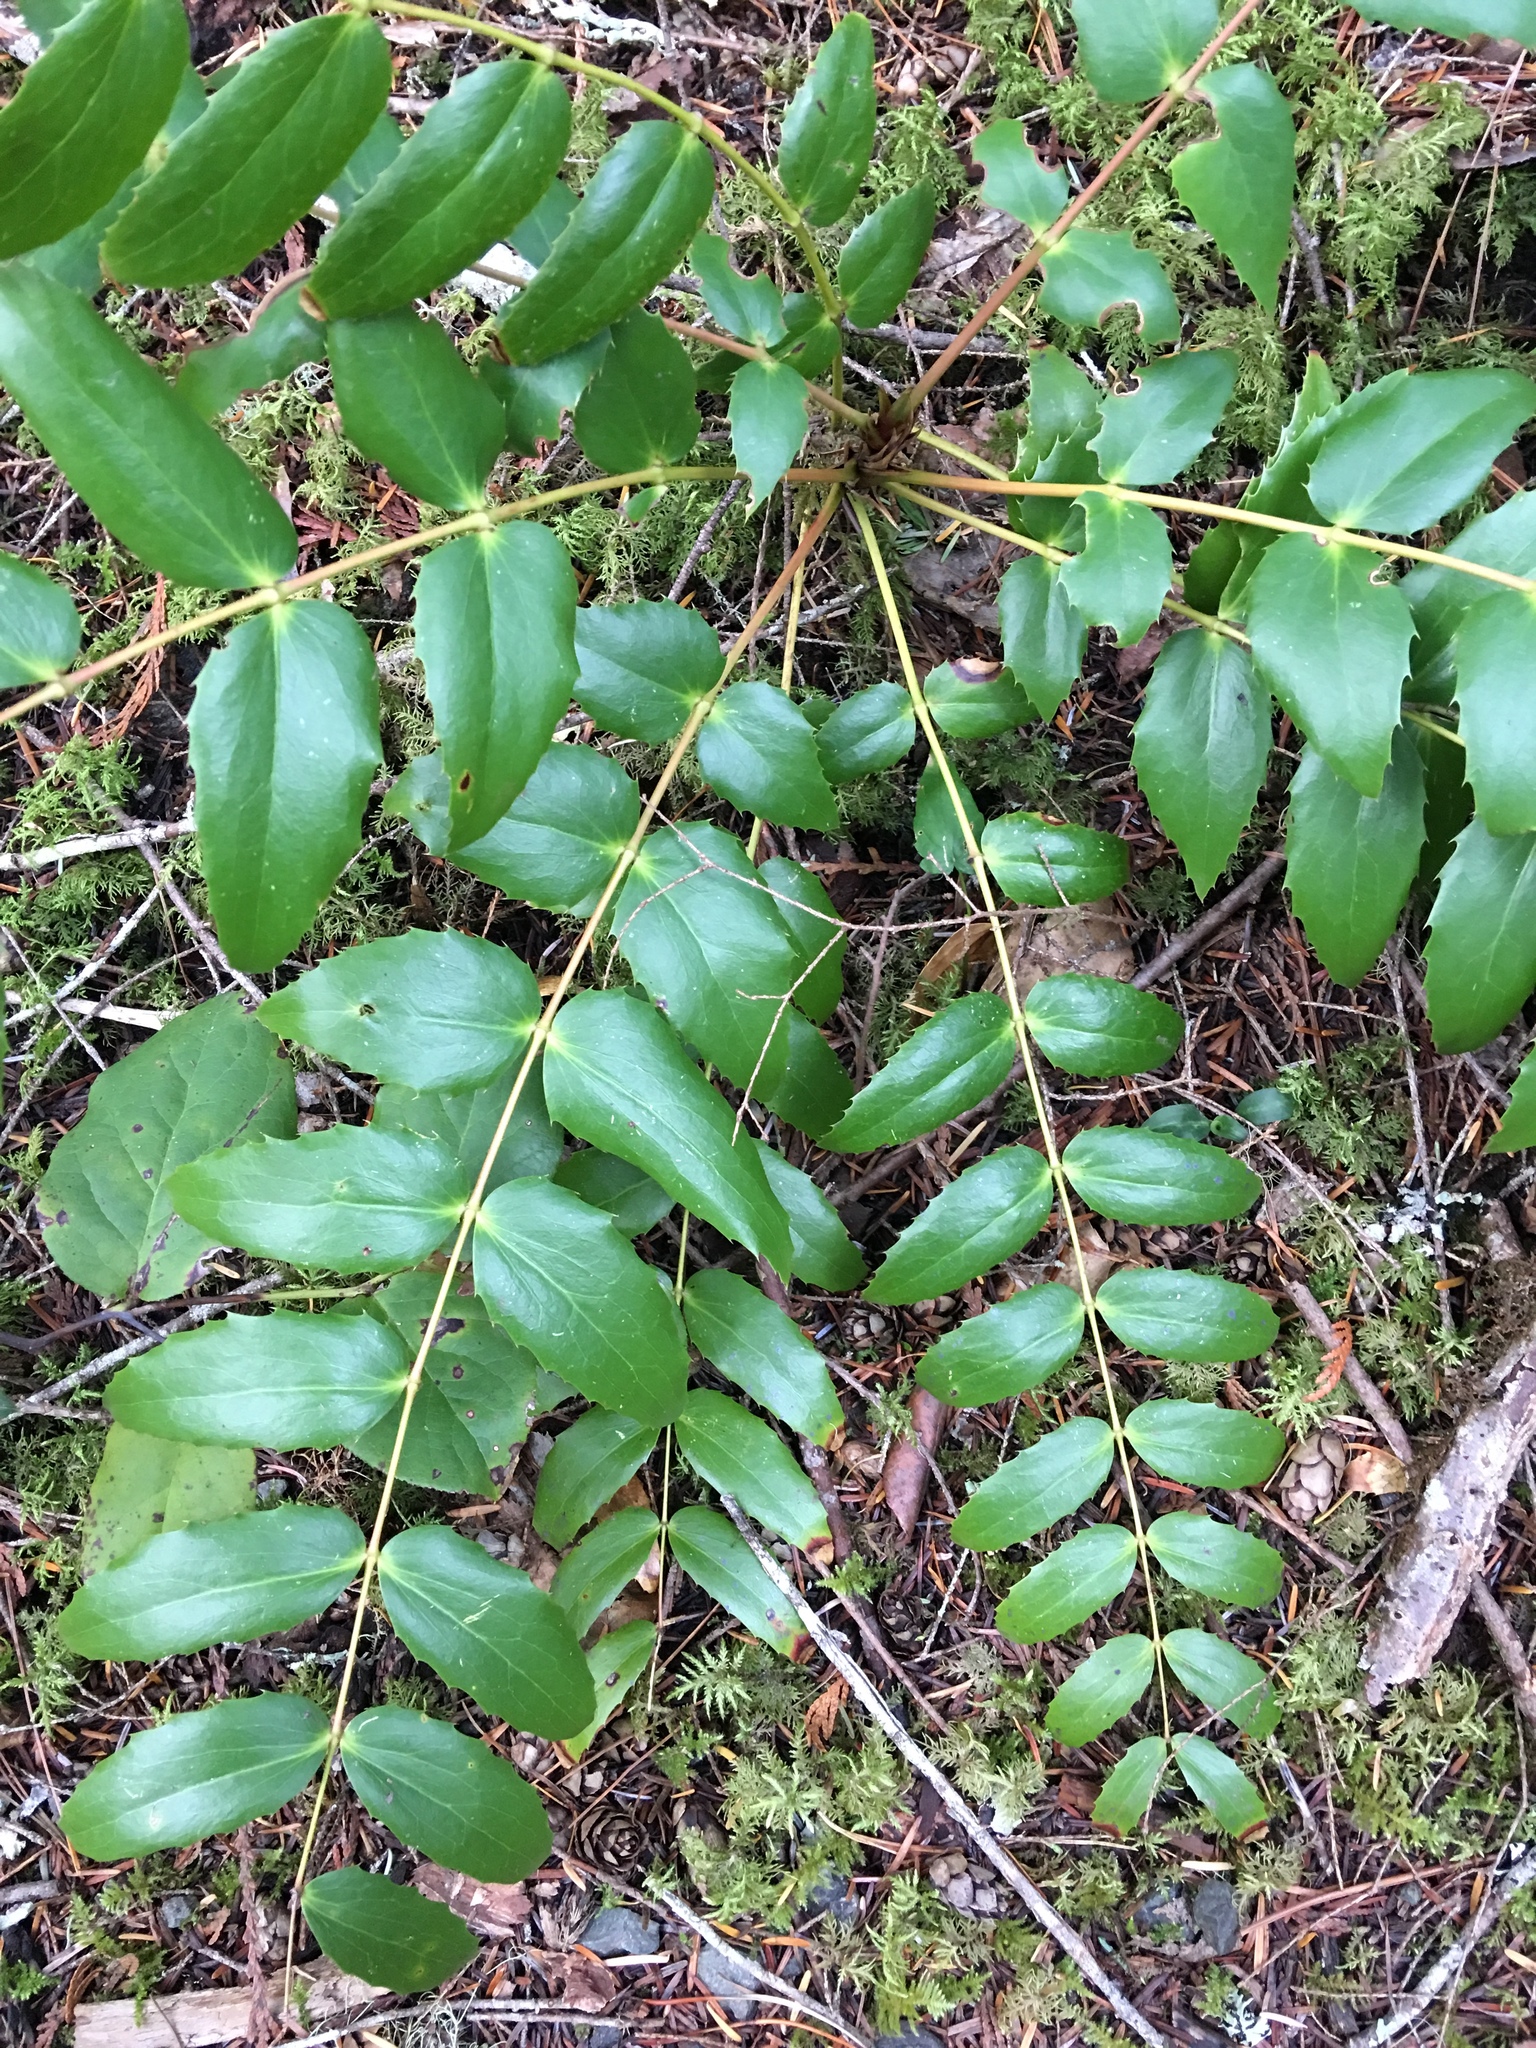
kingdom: Plantae
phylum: Tracheophyta
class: Magnoliopsida
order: Ranunculales
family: Berberidaceae
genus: Mahonia
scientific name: Mahonia nervosa
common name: Cascade oregon-grape
